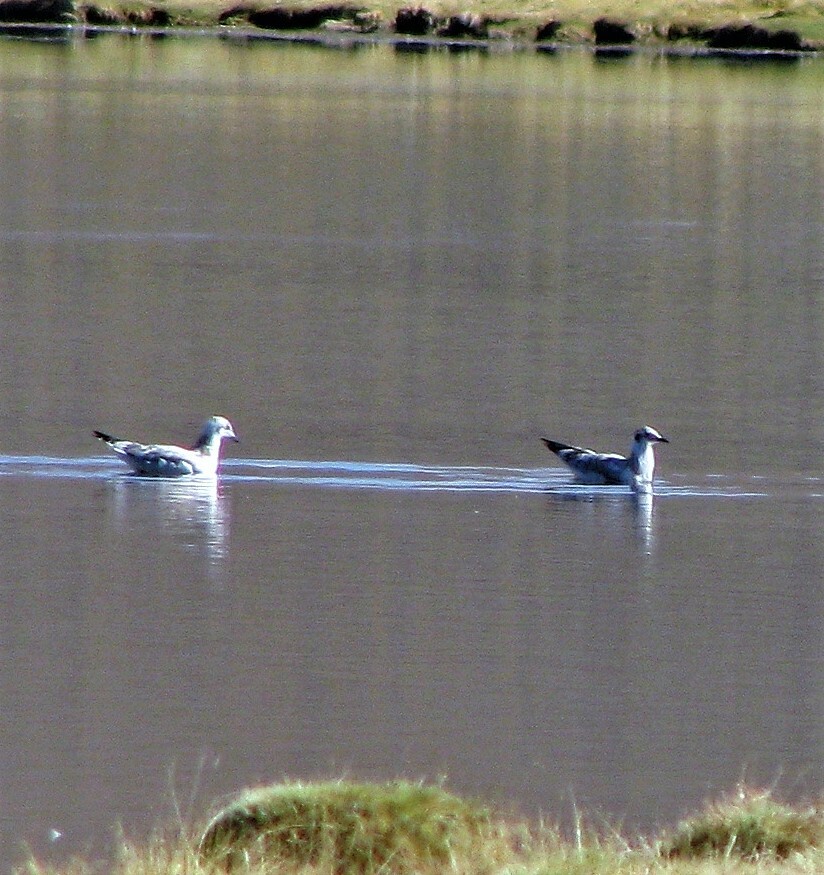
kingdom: Animalia
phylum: Chordata
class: Aves
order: Charadriiformes
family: Laridae
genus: Chroicocephalus
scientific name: Chroicocephalus serranus
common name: Andean gull
